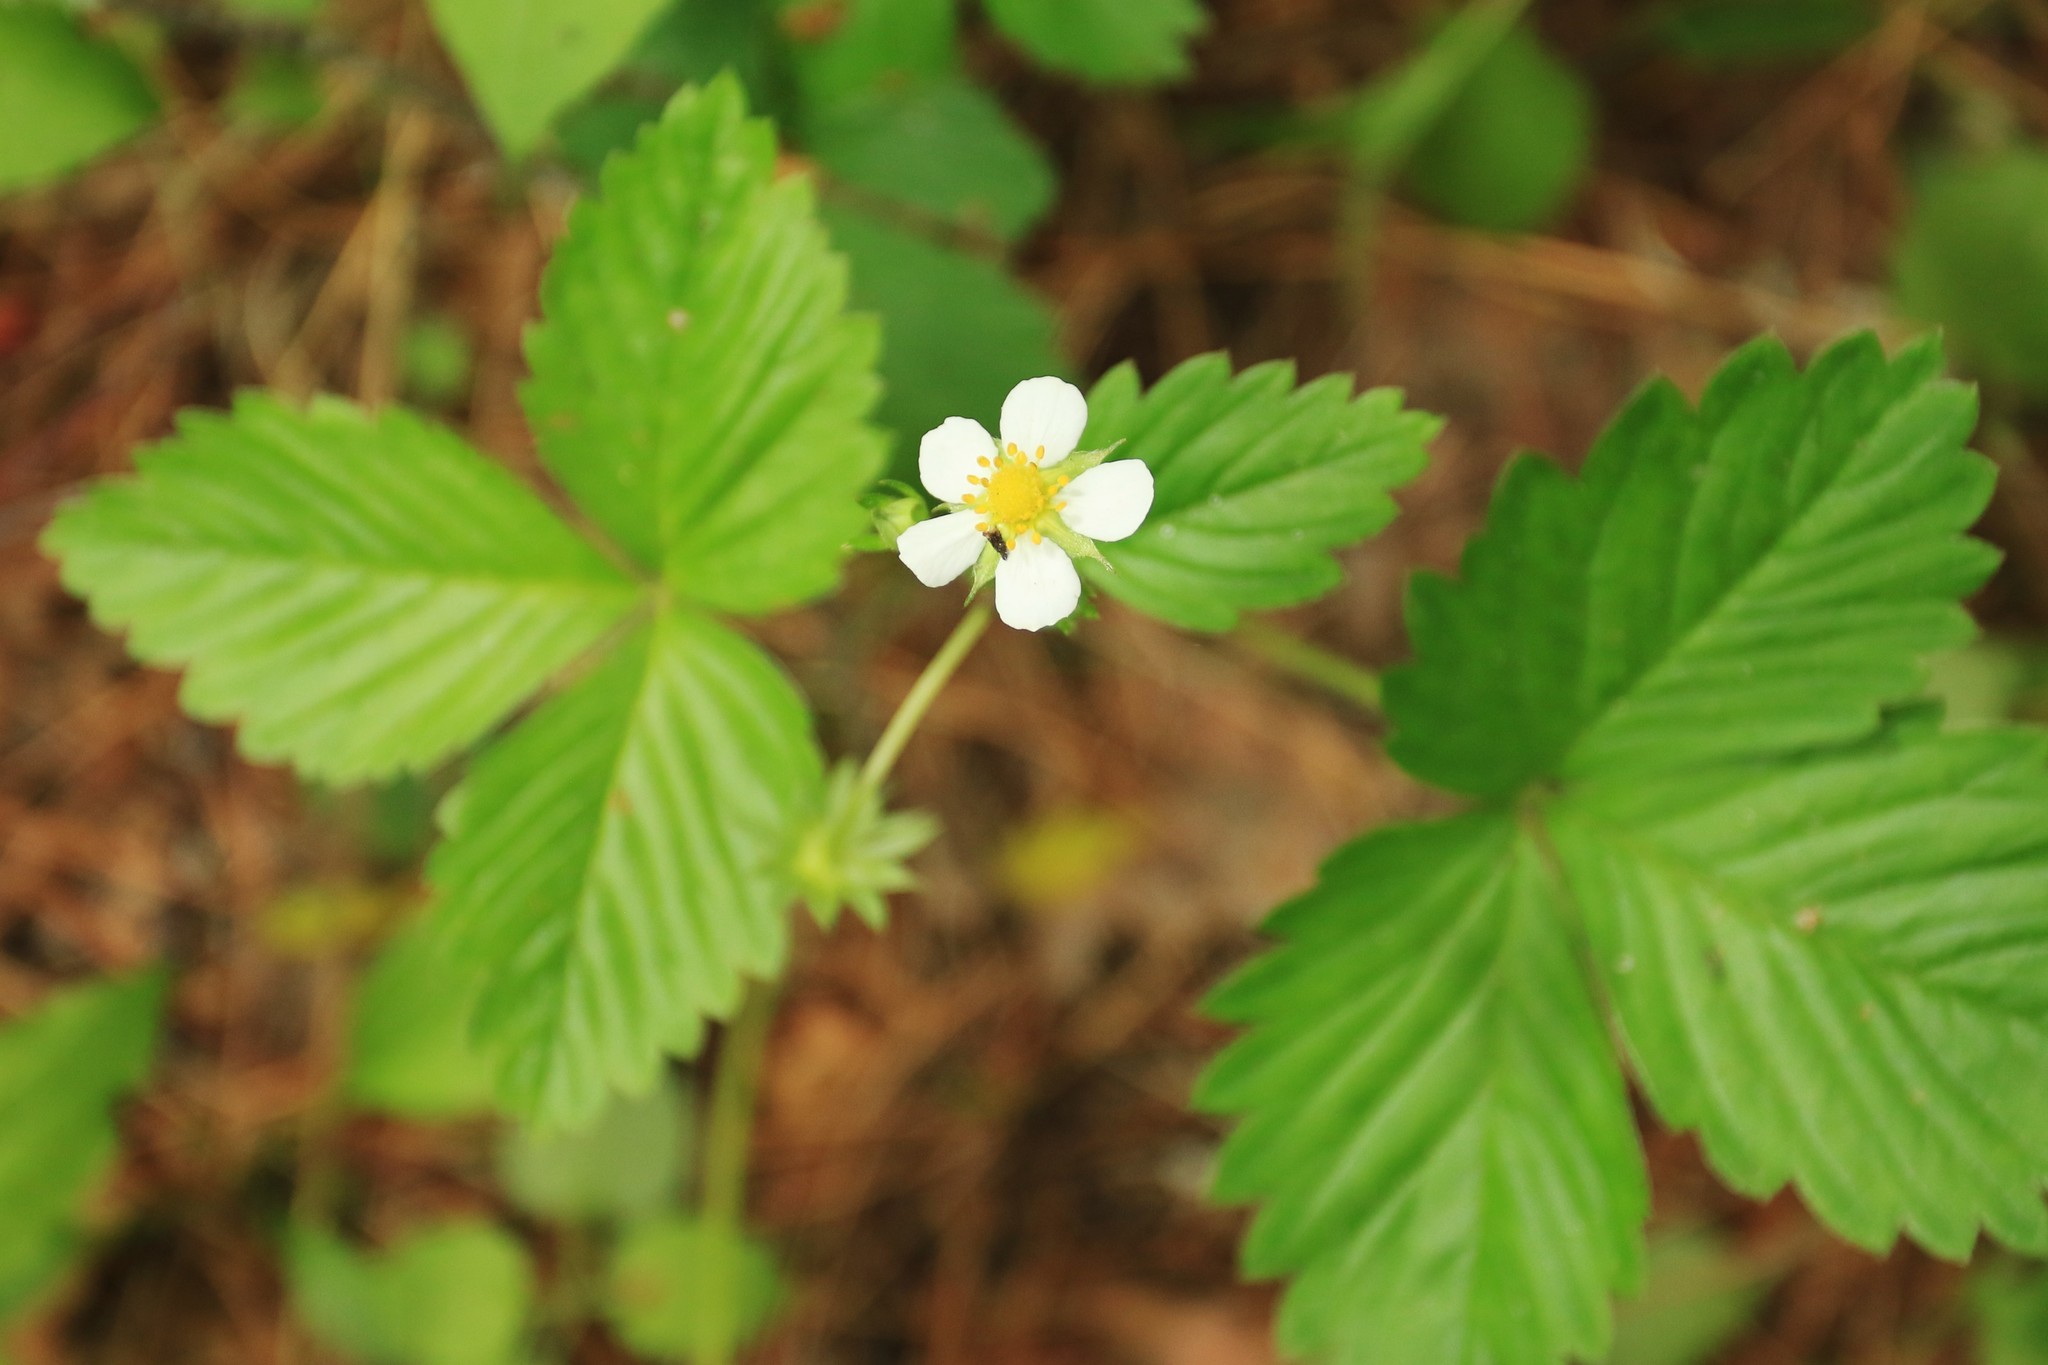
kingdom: Plantae
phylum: Tracheophyta
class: Magnoliopsida
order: Rosales
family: Rosaceae
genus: Fragaria
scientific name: Fragaria vesca
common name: Wild strawberry
